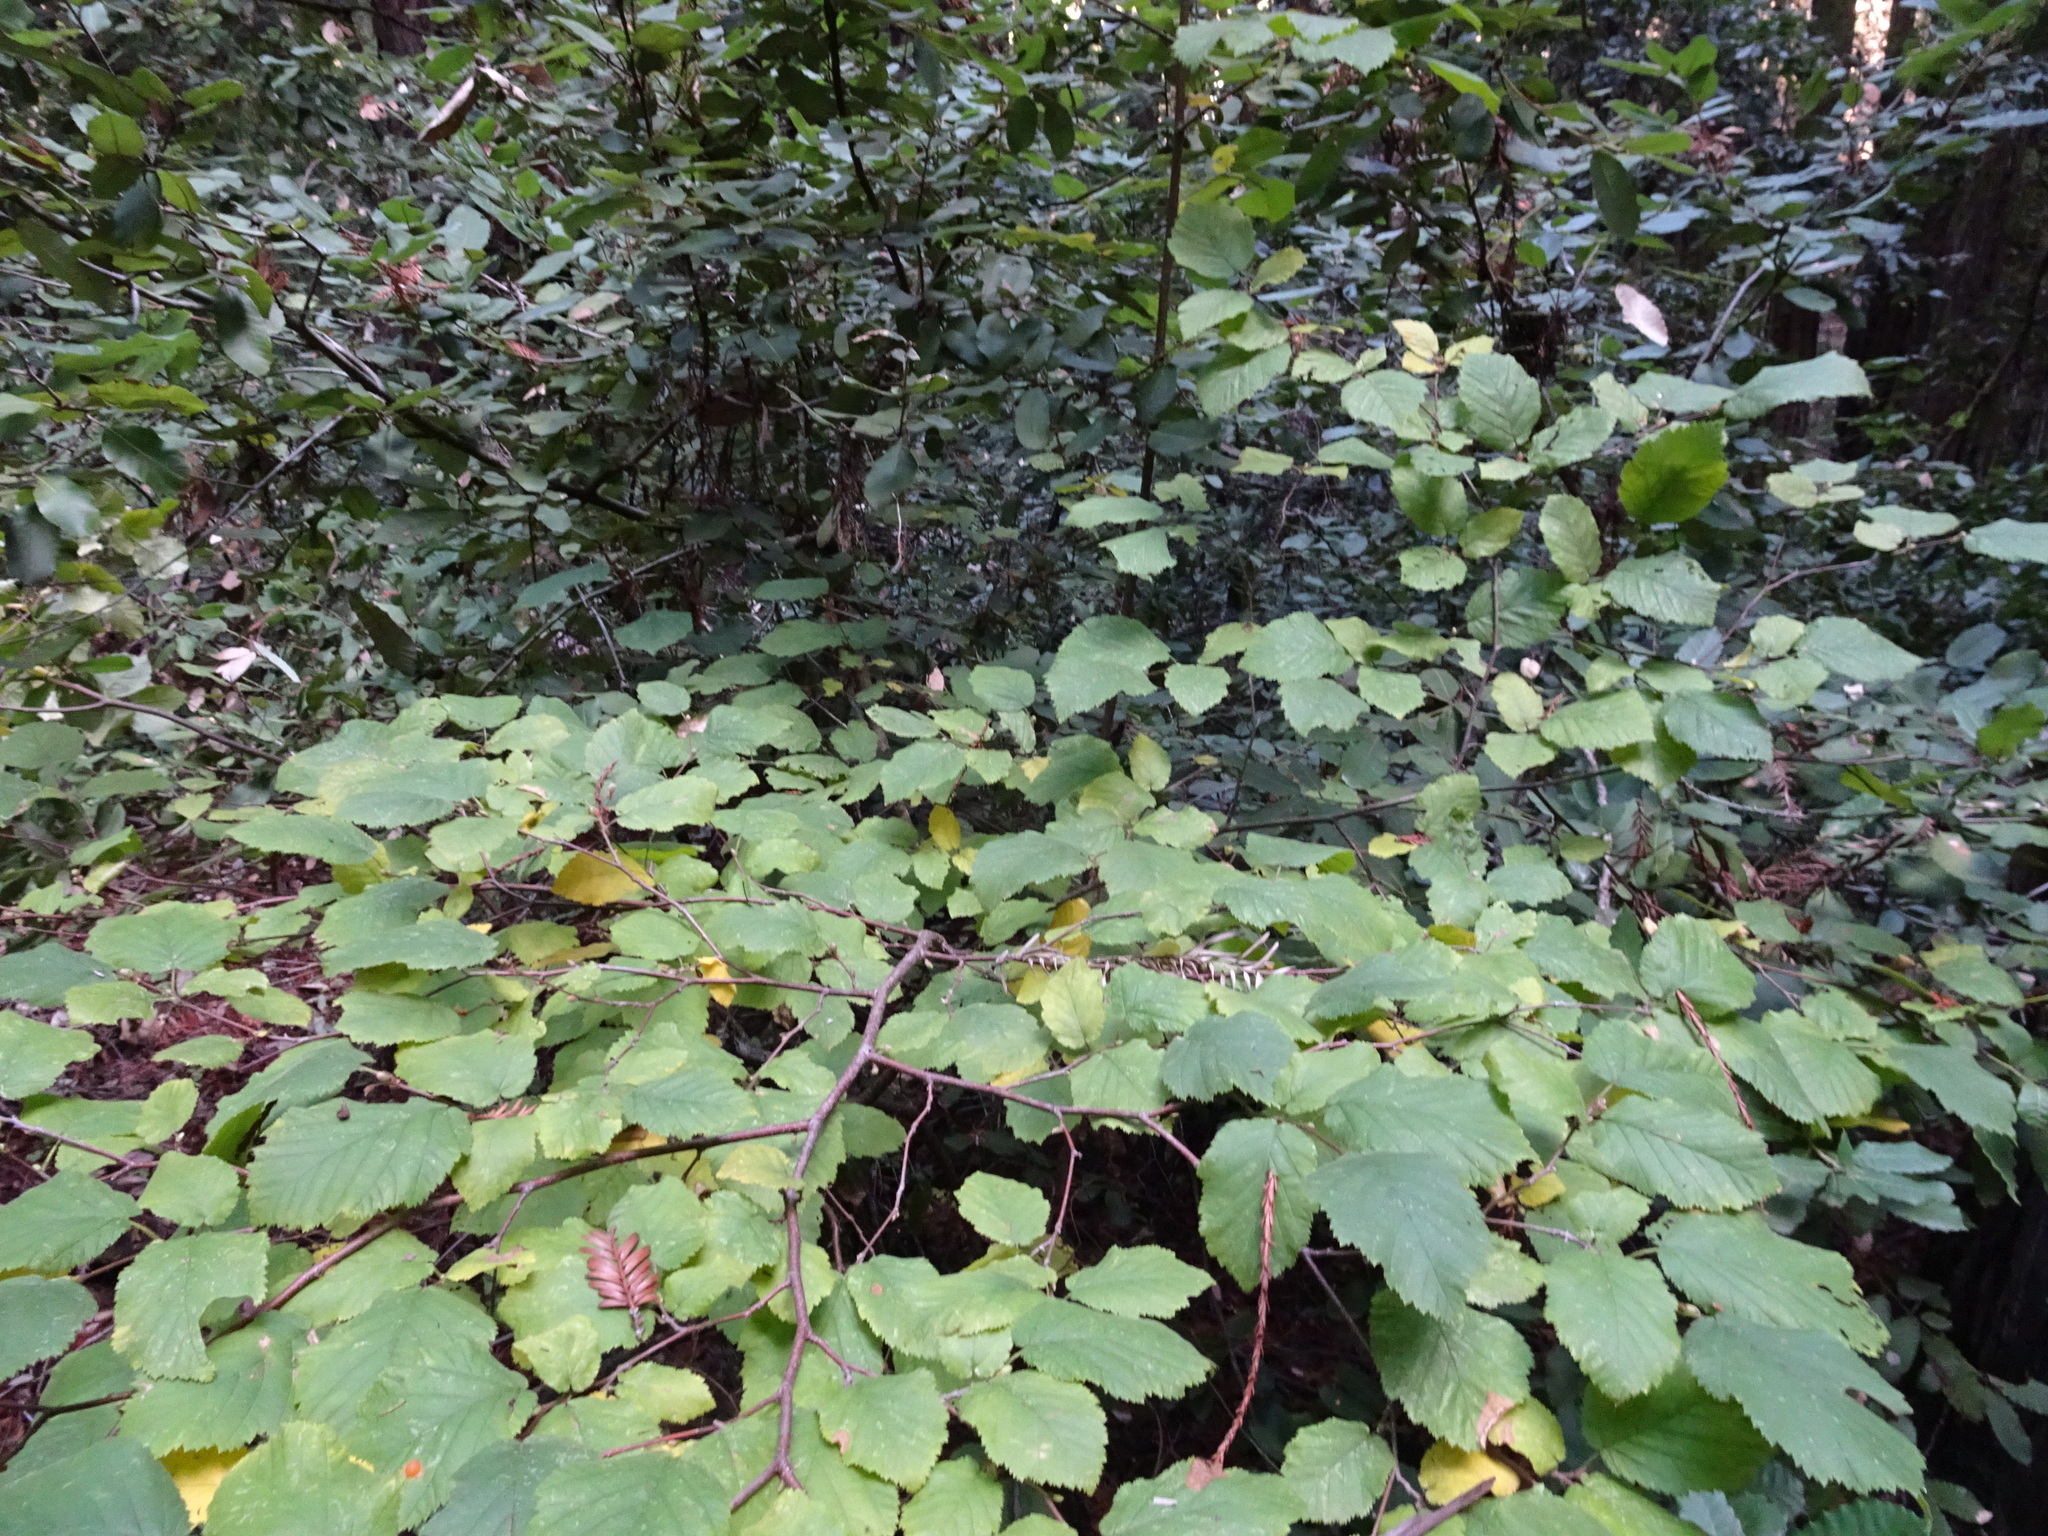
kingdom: Plantae
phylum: Tracheophyta
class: Magnoliopsida
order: Fagales
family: Betulaceae
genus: Corylus
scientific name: Corylus cornuta
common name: Beaked hazel
